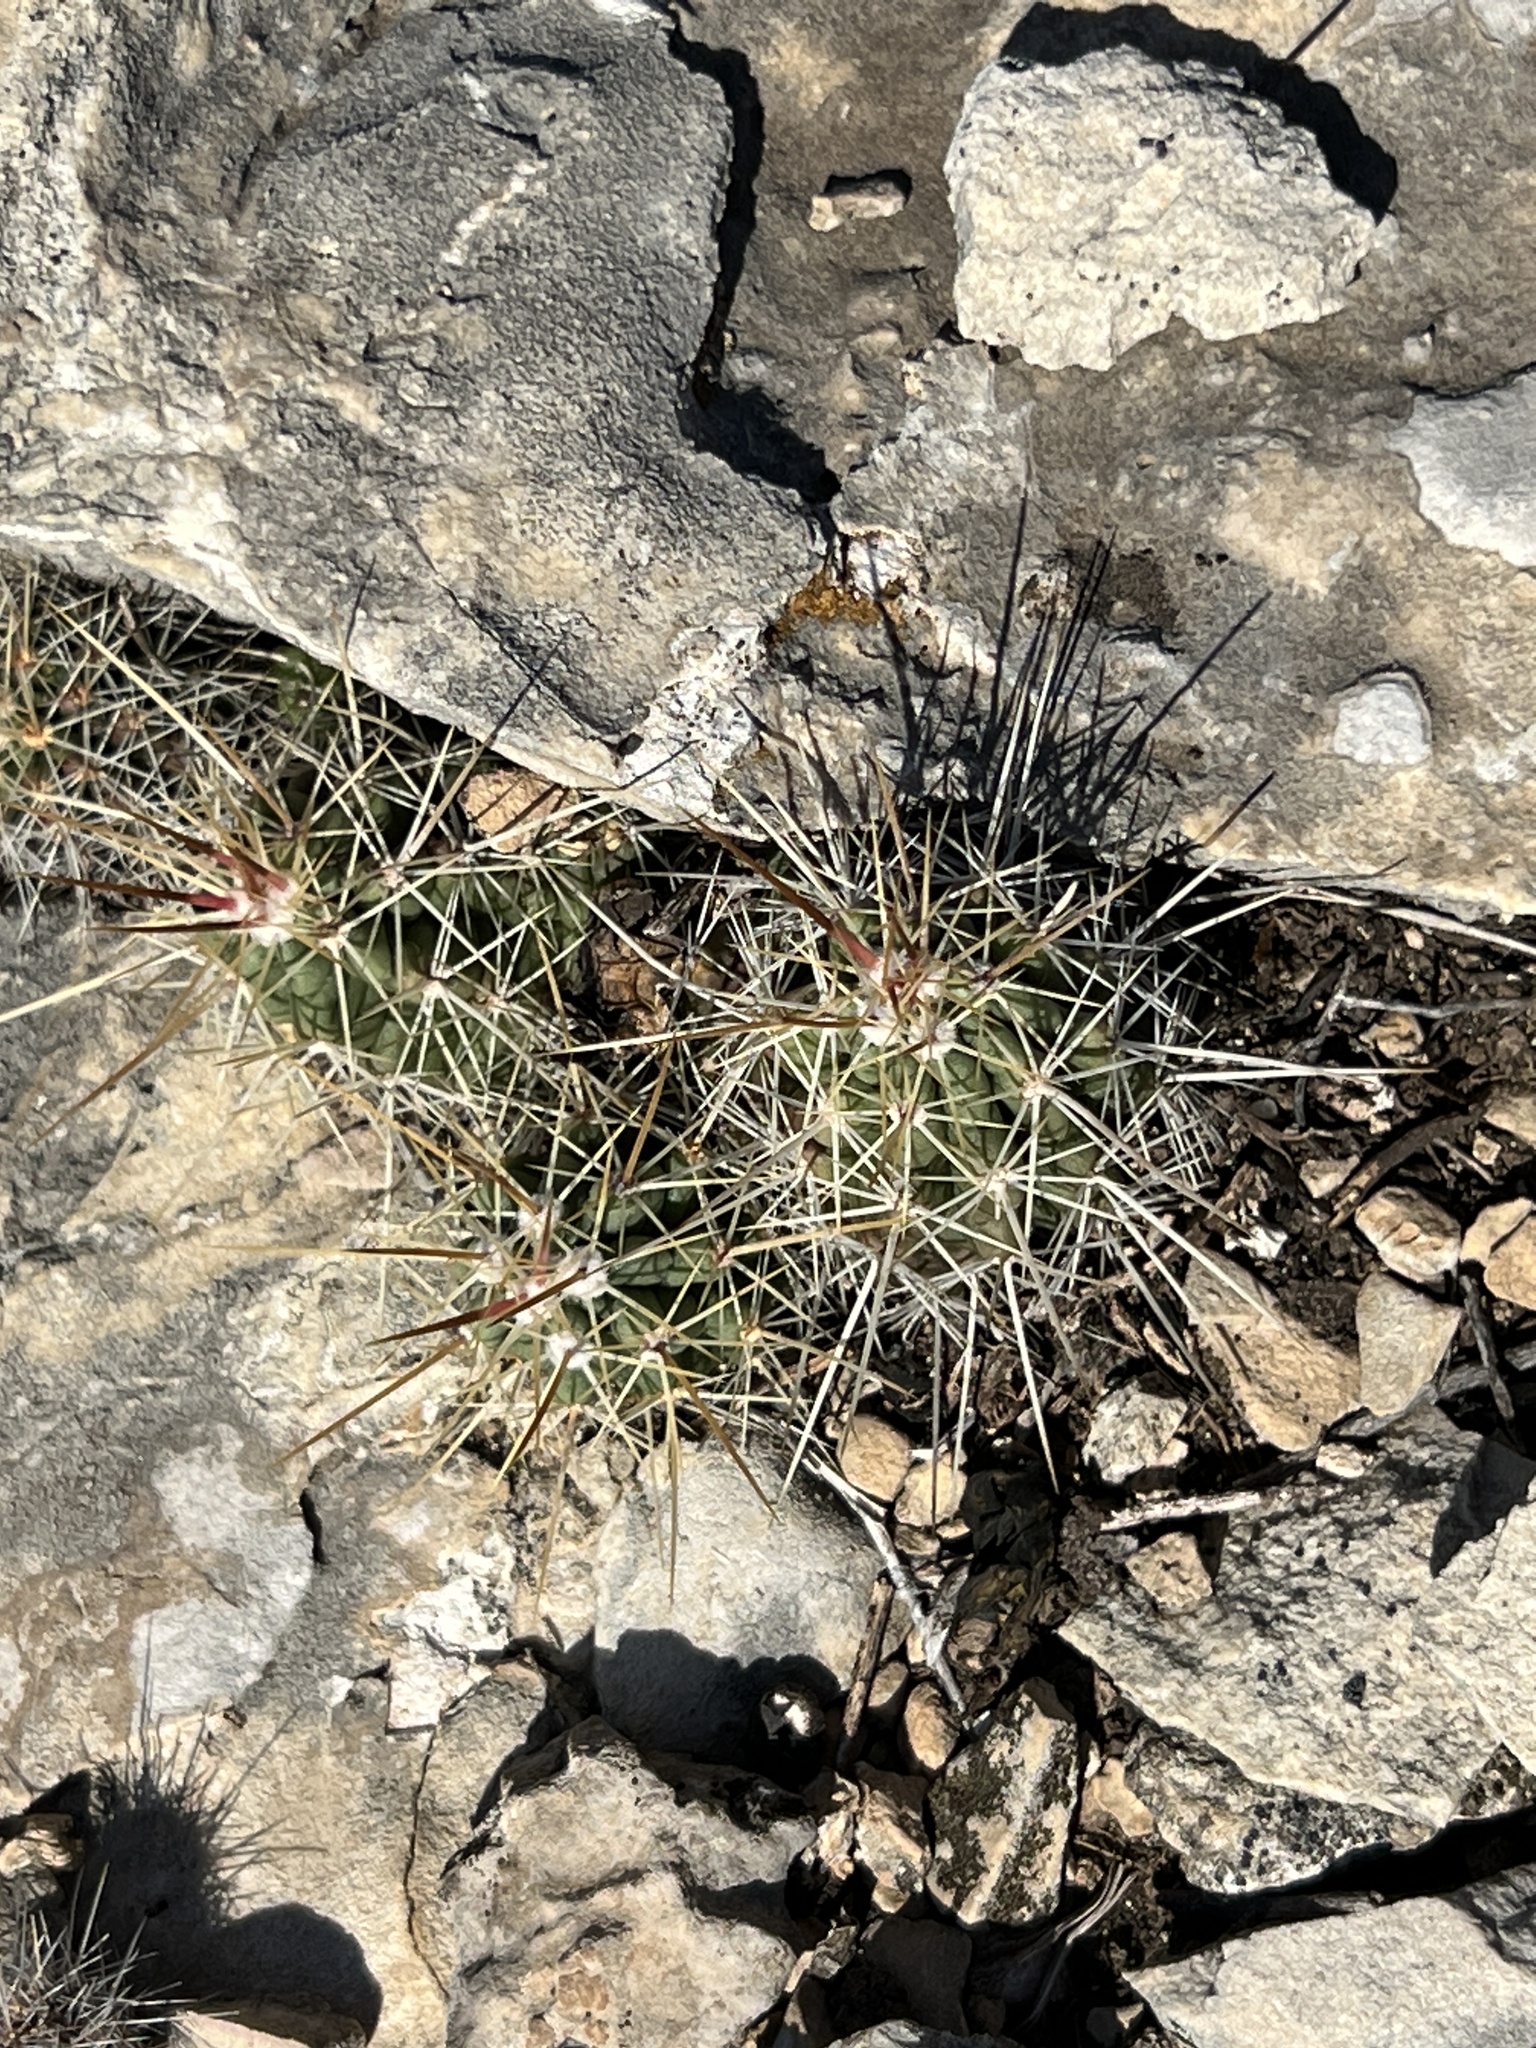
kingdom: Plantae
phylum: Tracheophyta
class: Magnoliopsida
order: Caryophyllales
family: Cactaceae
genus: Echinocereus
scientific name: Echinocereus enneacanthus
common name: Pitaya
